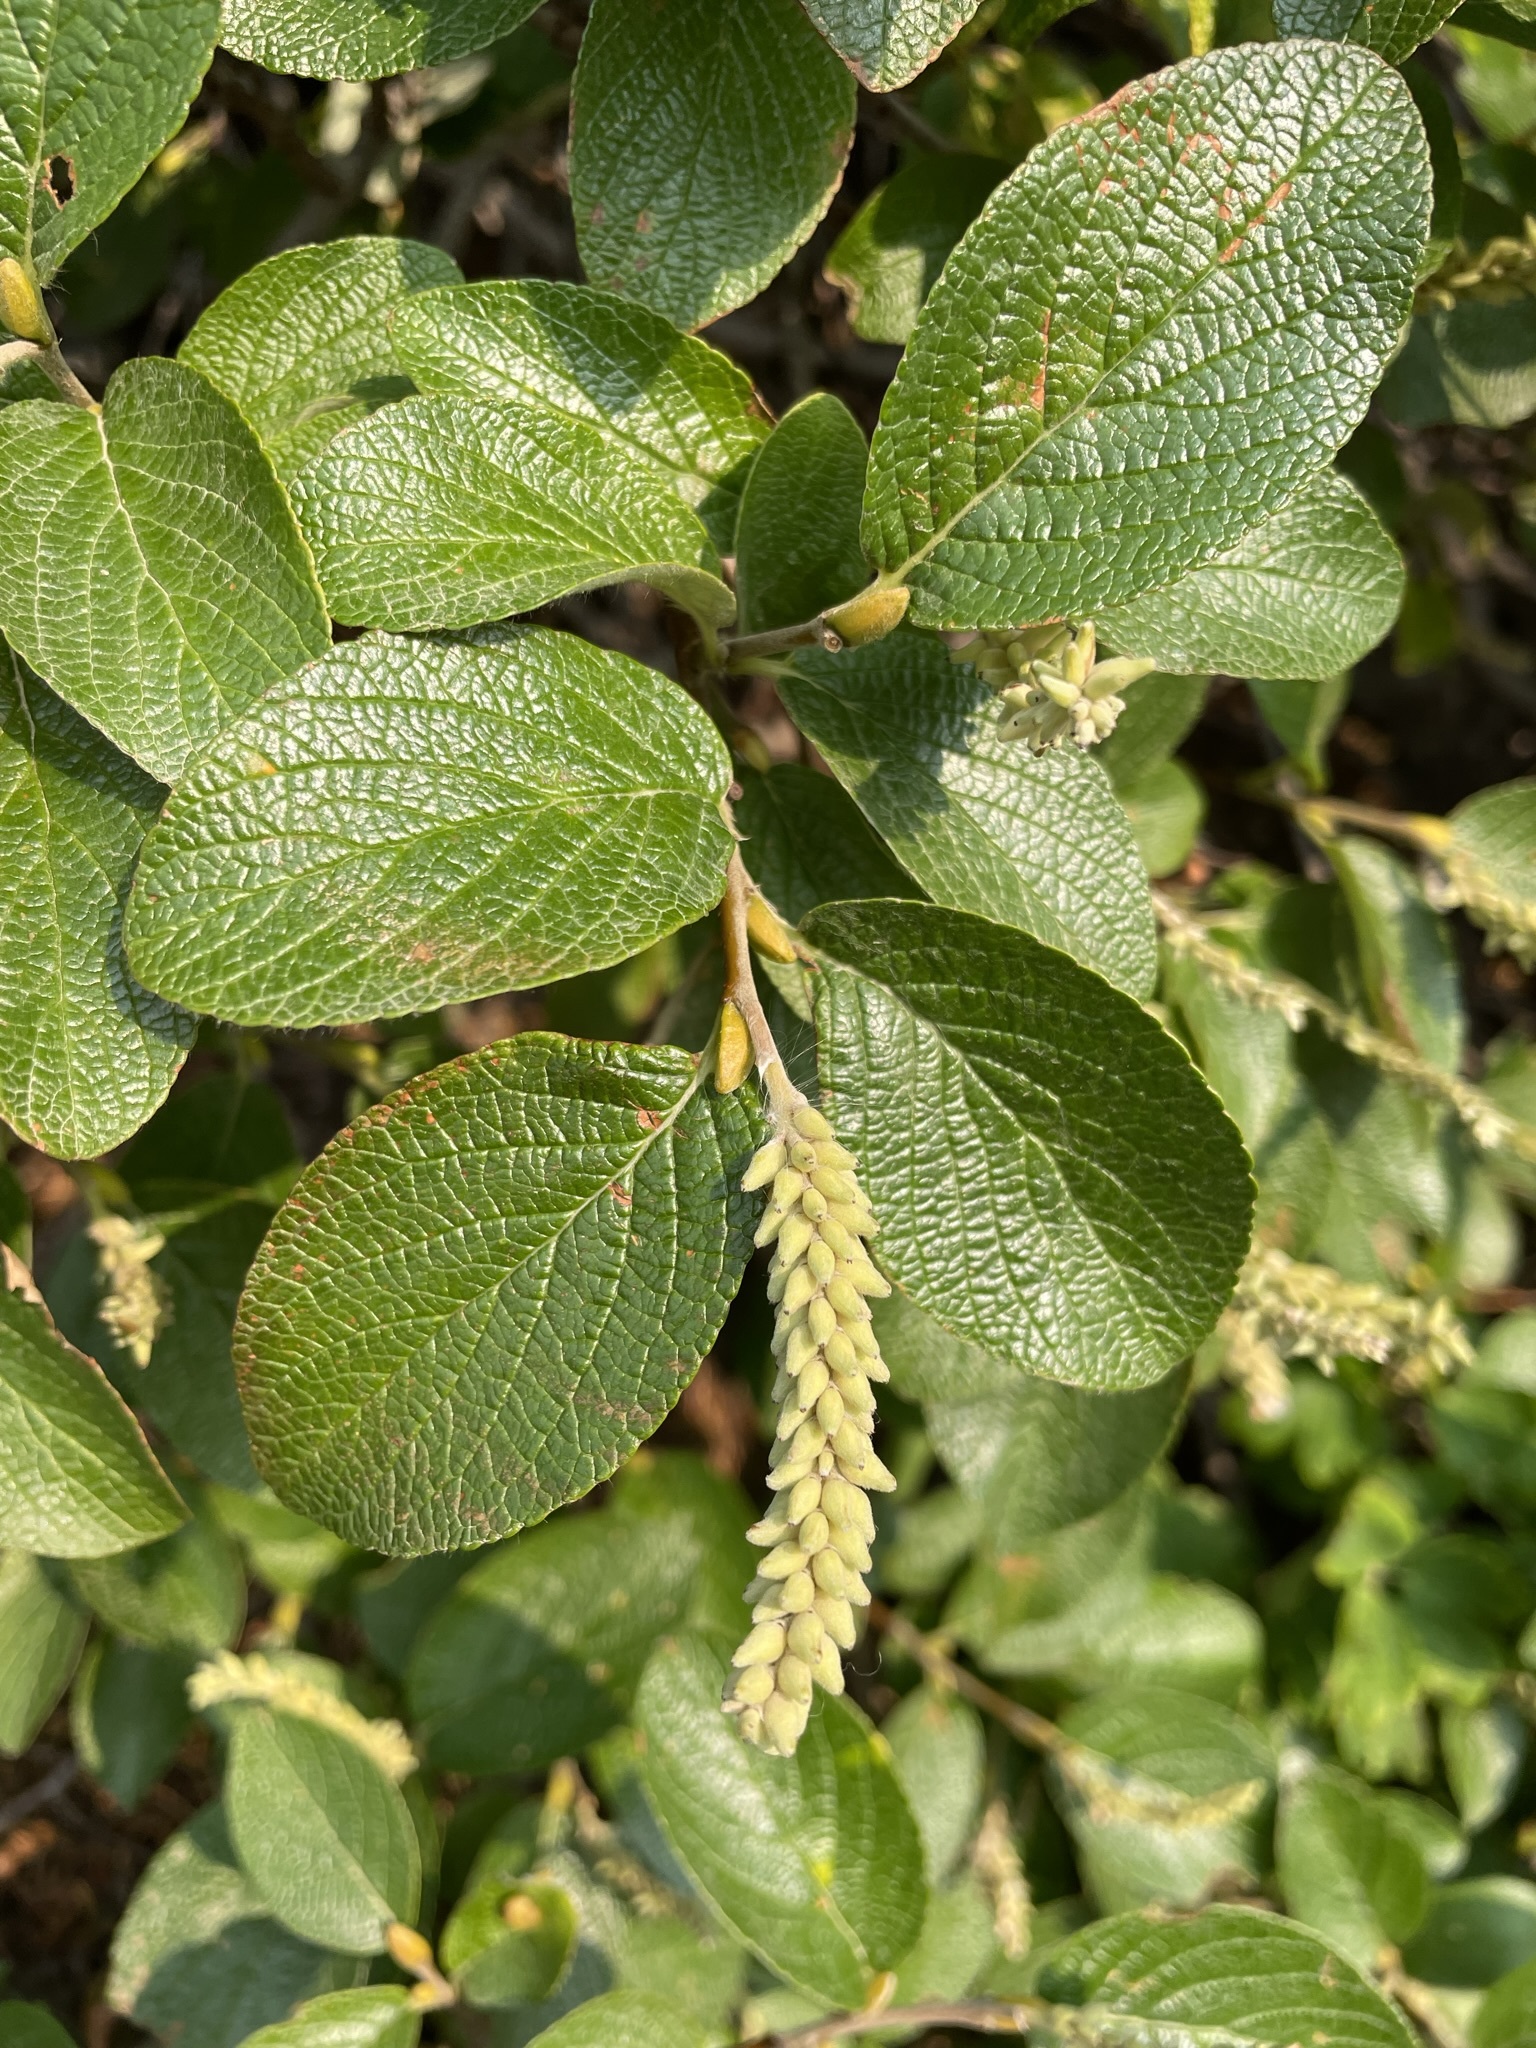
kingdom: Plantae
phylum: Tracheophyta
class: Magnoliopsida
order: Malpighiales
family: Salicaceae
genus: Salix
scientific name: Salix vestita
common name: Hairy willow
